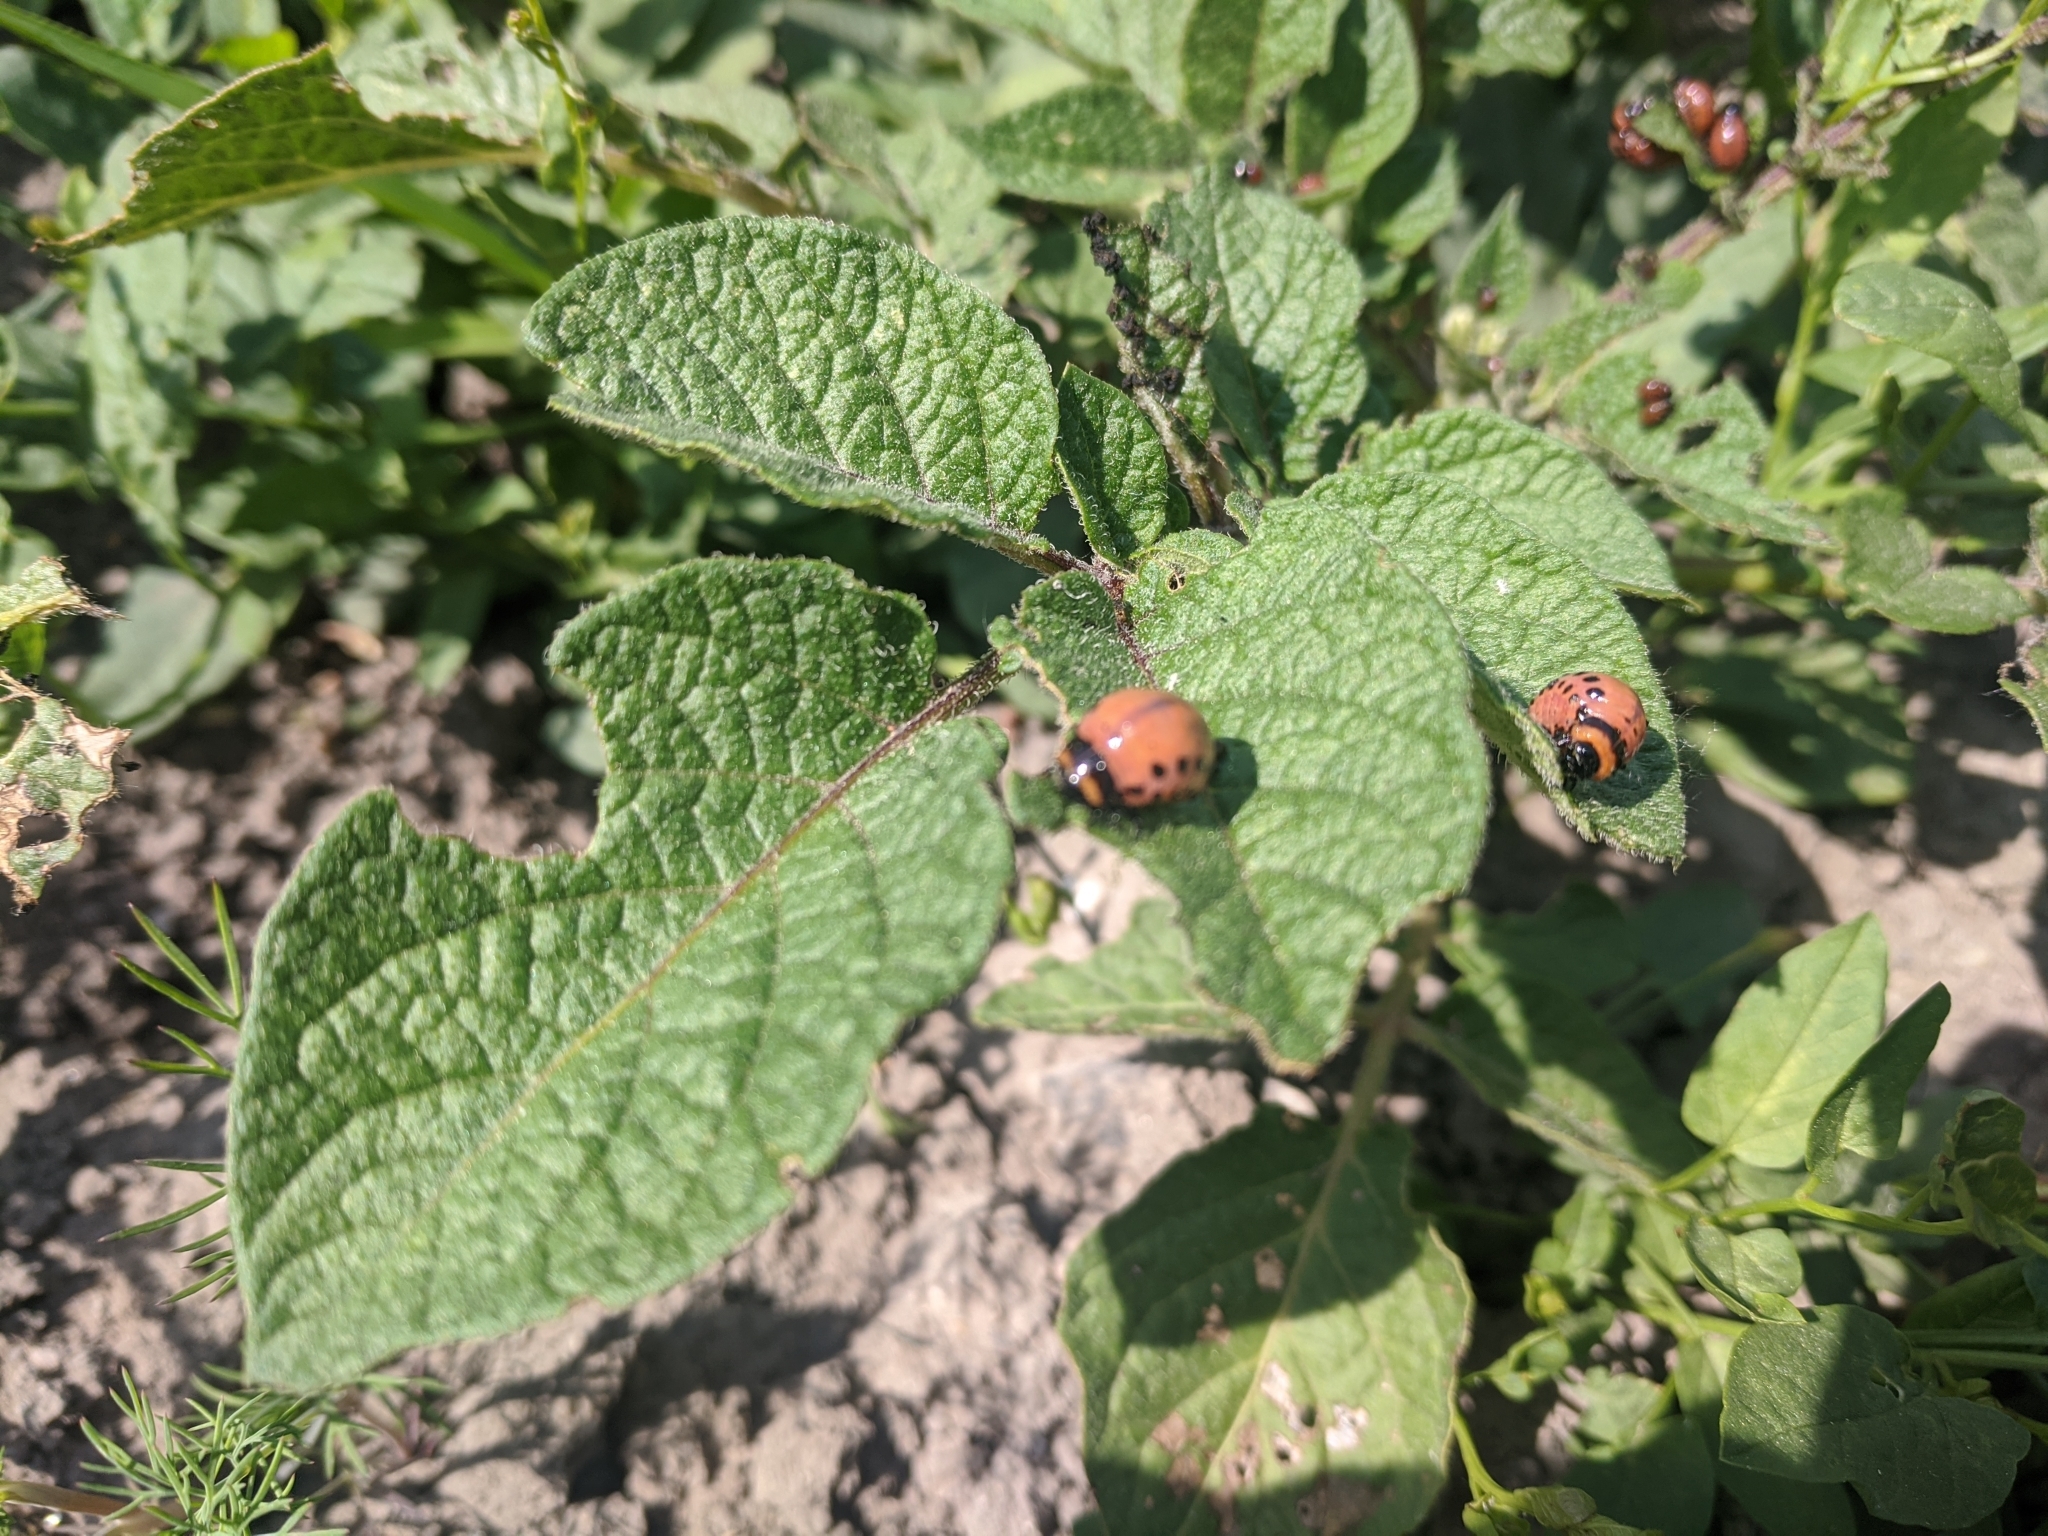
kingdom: Animalia
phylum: Arthropoda
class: Insecta
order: Coleoptera
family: Chrysomelidae
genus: Leptinotarsa
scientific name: Leptinotarsa decemlineata
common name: Colorado potato beetle
